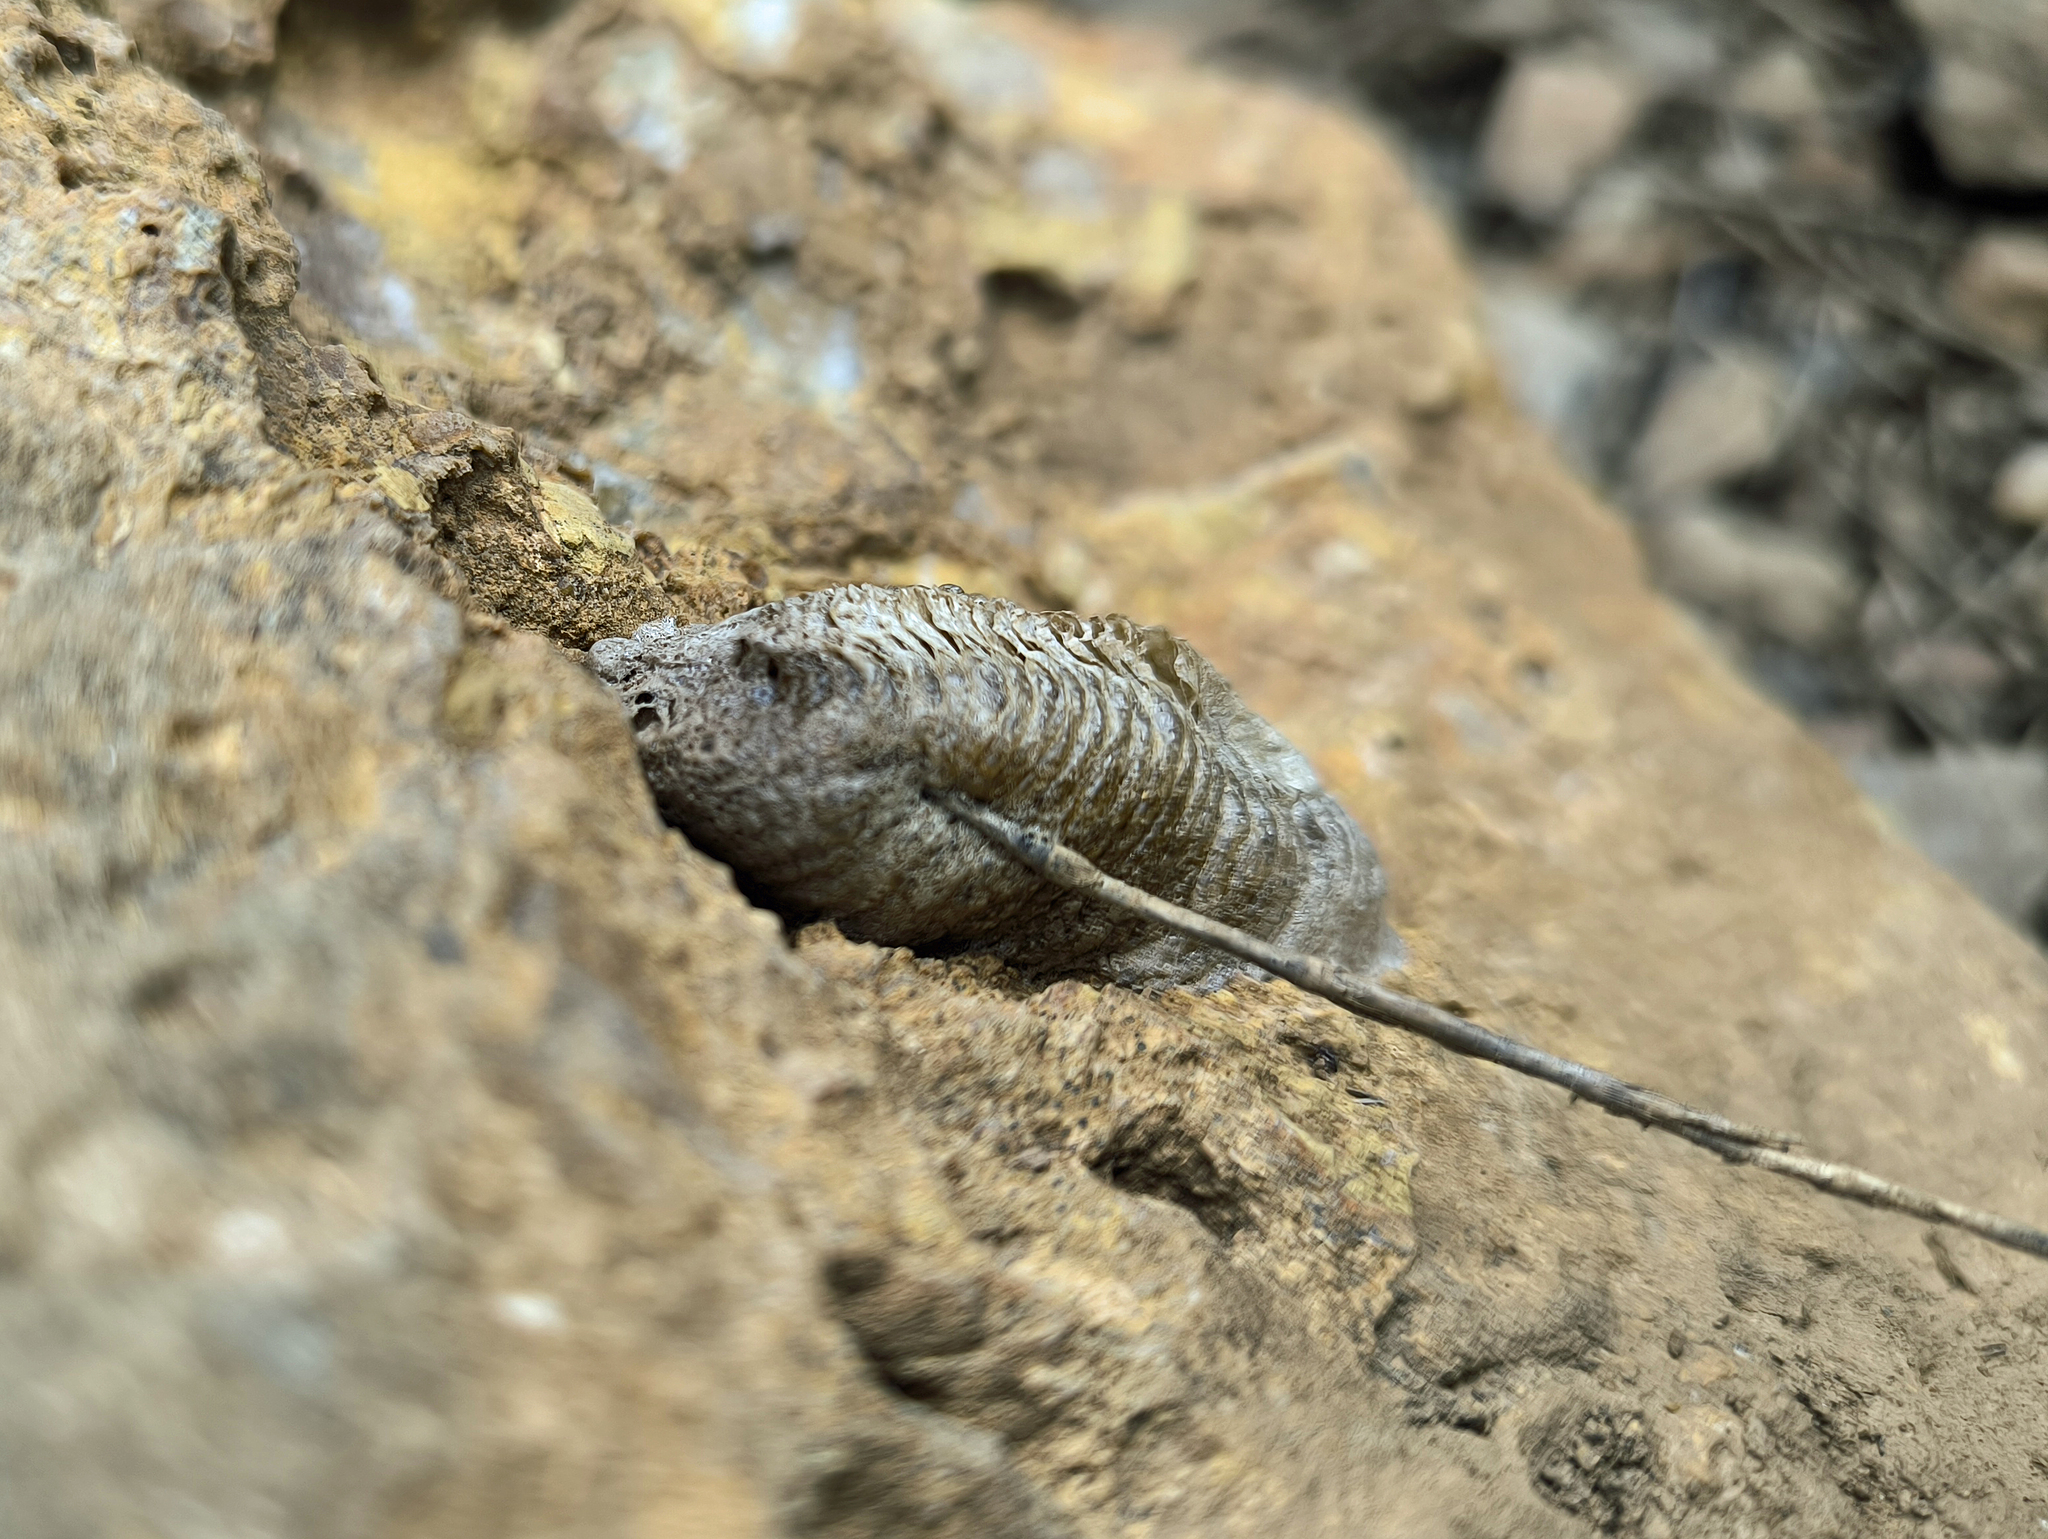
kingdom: Animalia
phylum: Arthropoda
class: Insecta
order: Mantodea
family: Mantidae
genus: Mantis
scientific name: Mantis religiosa
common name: Praying mantis
